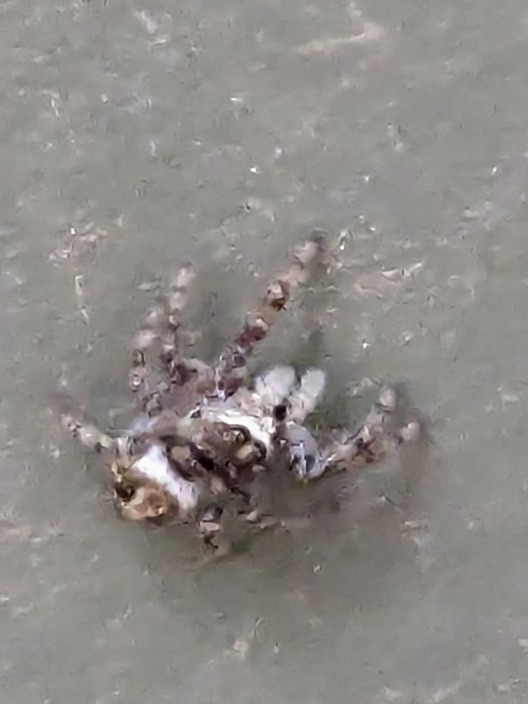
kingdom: Animalia
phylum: Arthropoda
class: Arachnida
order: Araneae
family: Salticidae
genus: Pelegrina
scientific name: Pelegrina aeneola
